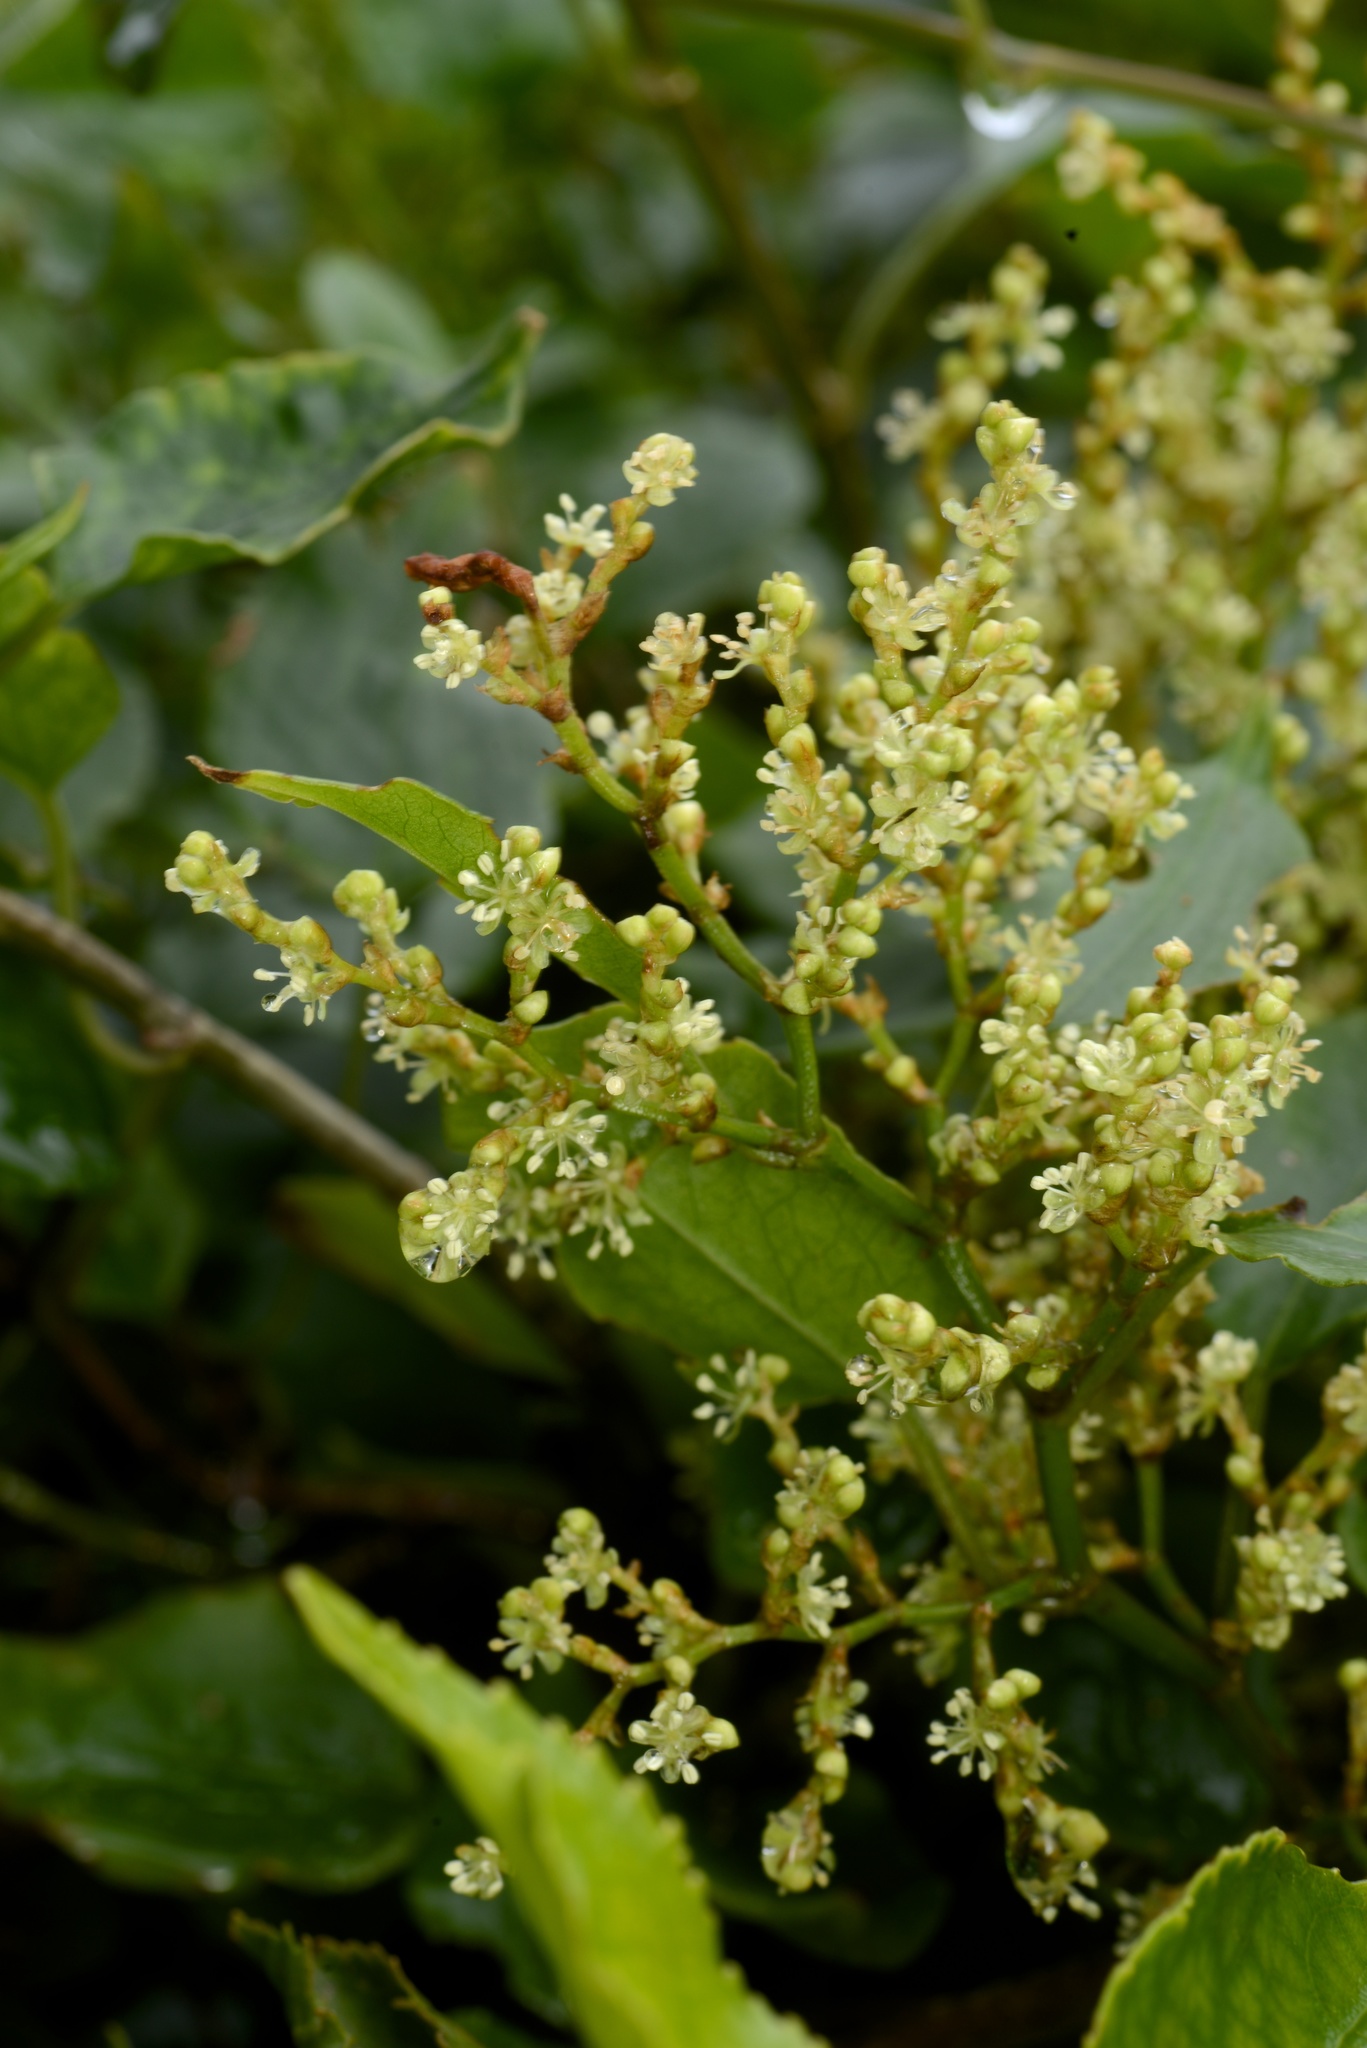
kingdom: Plantae
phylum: Tracheophyta
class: Magnoliopsida
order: Caryophyllales
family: Polygonaceae
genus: Muehlenbeckia
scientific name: Muehlenbeckia australis
